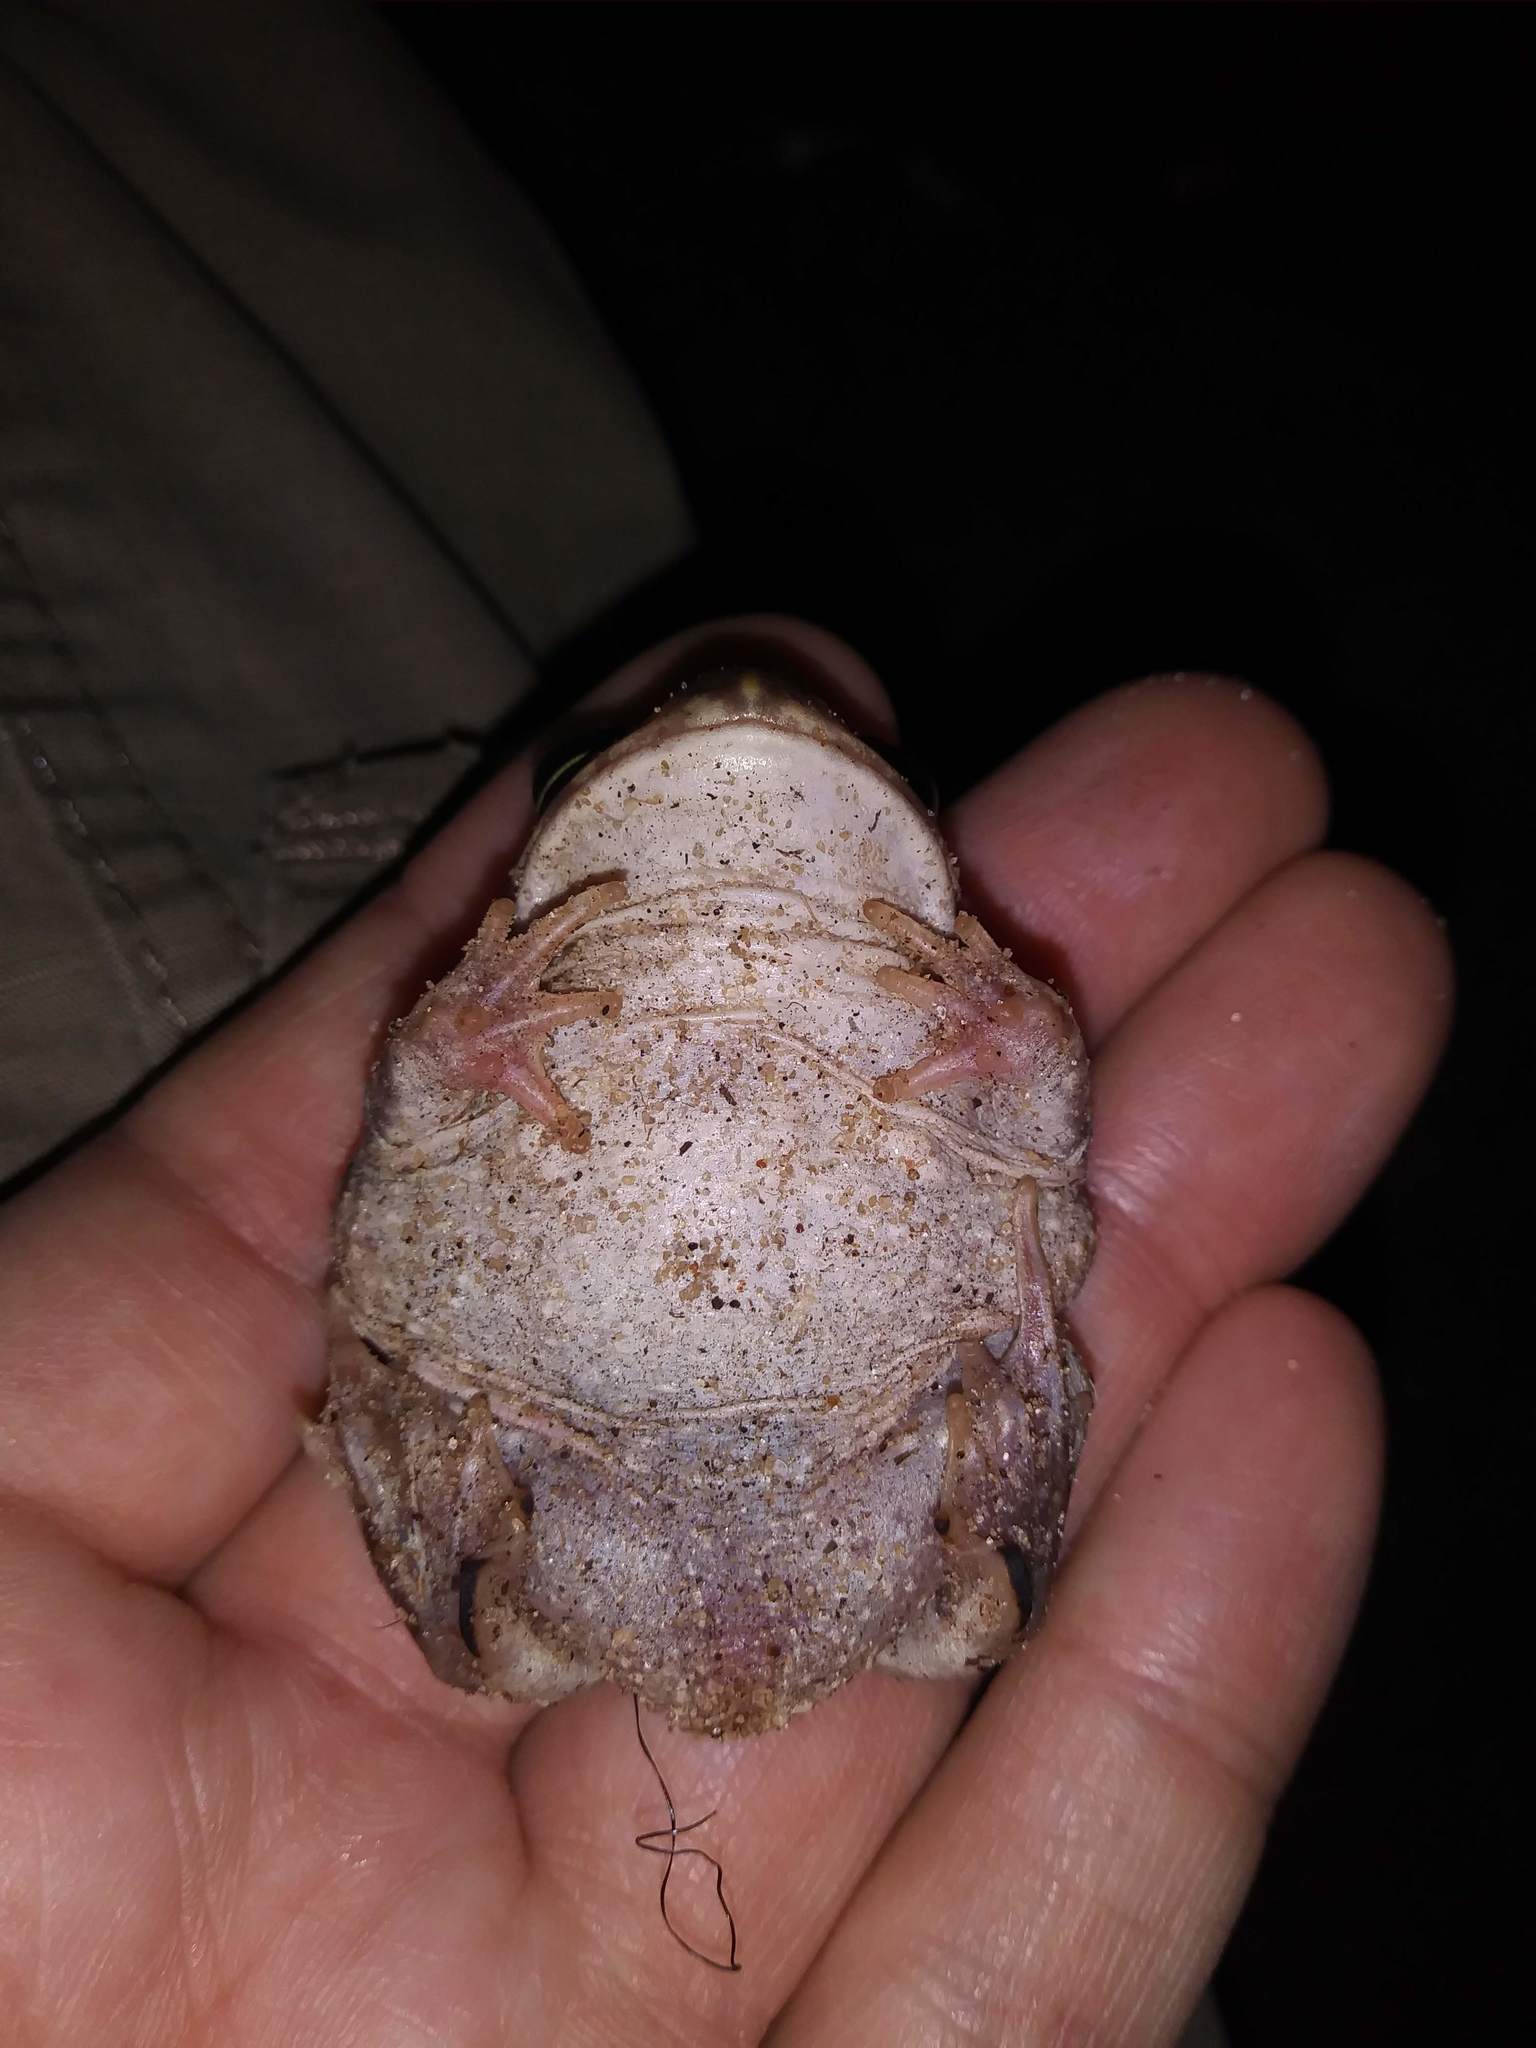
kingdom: Animalia
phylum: Chordata
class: Amphibia
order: Anura
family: Scaphiopodidae
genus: Scaphiopus
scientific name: Scaphiopus holbrookii
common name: Eastern spadefoot toad
